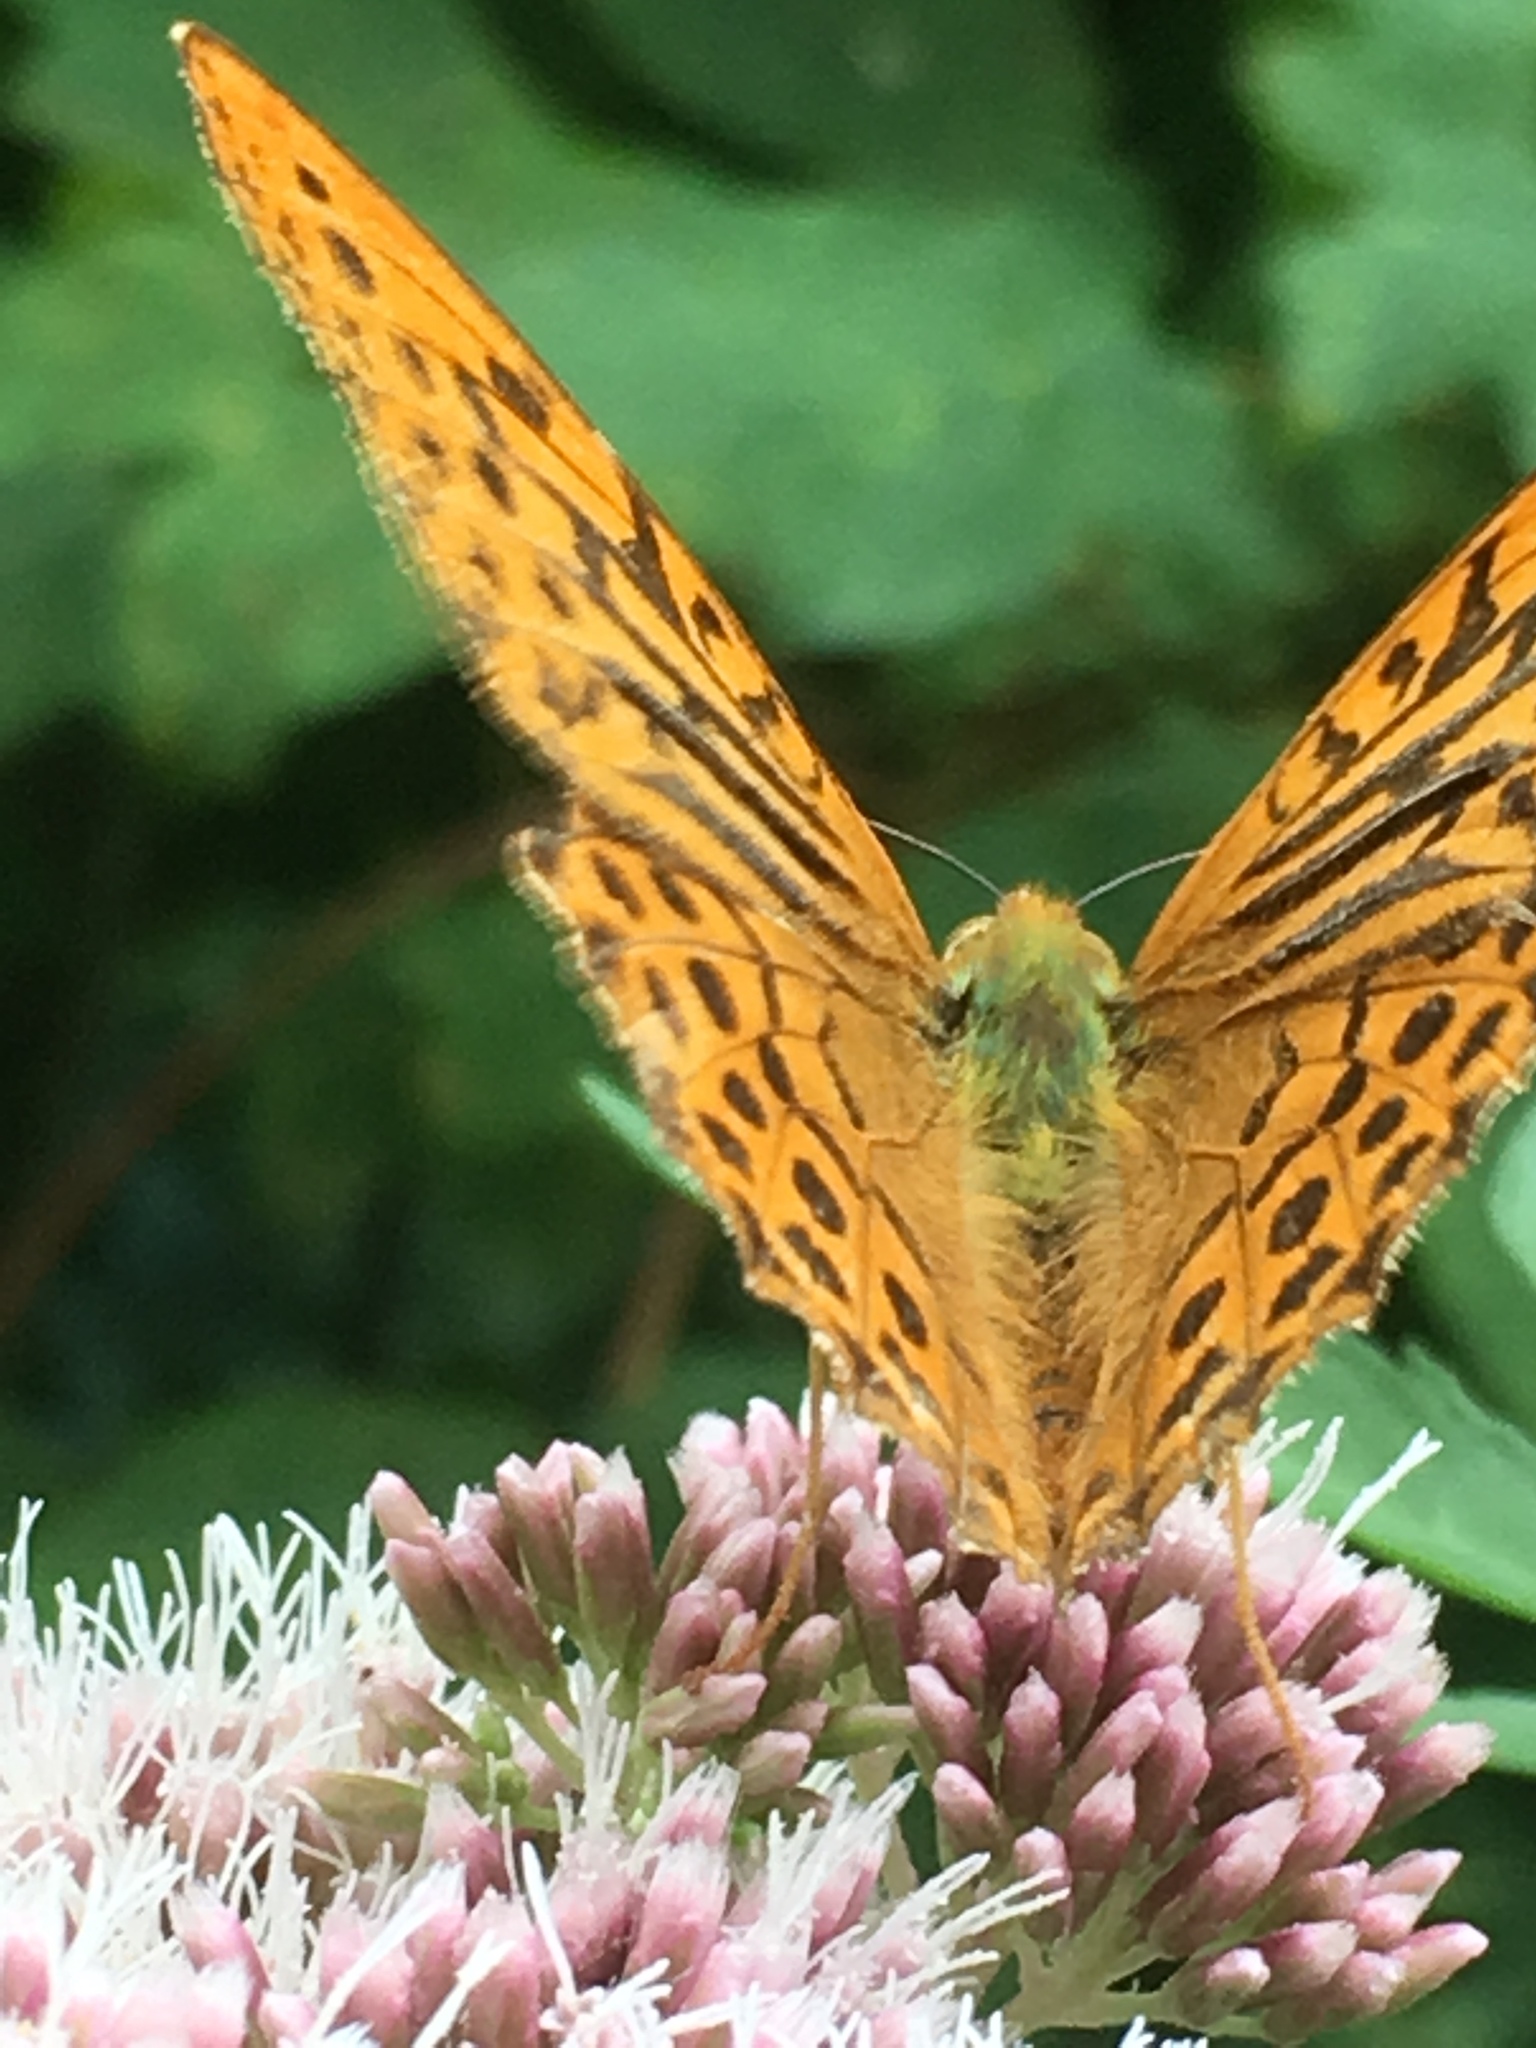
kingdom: Animalia
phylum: Arthropoda
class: Insecta
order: Lepidoptera
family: Nymphalidae
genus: Argynnis
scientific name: Argynnis paphia
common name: Silver-washed fritillary
